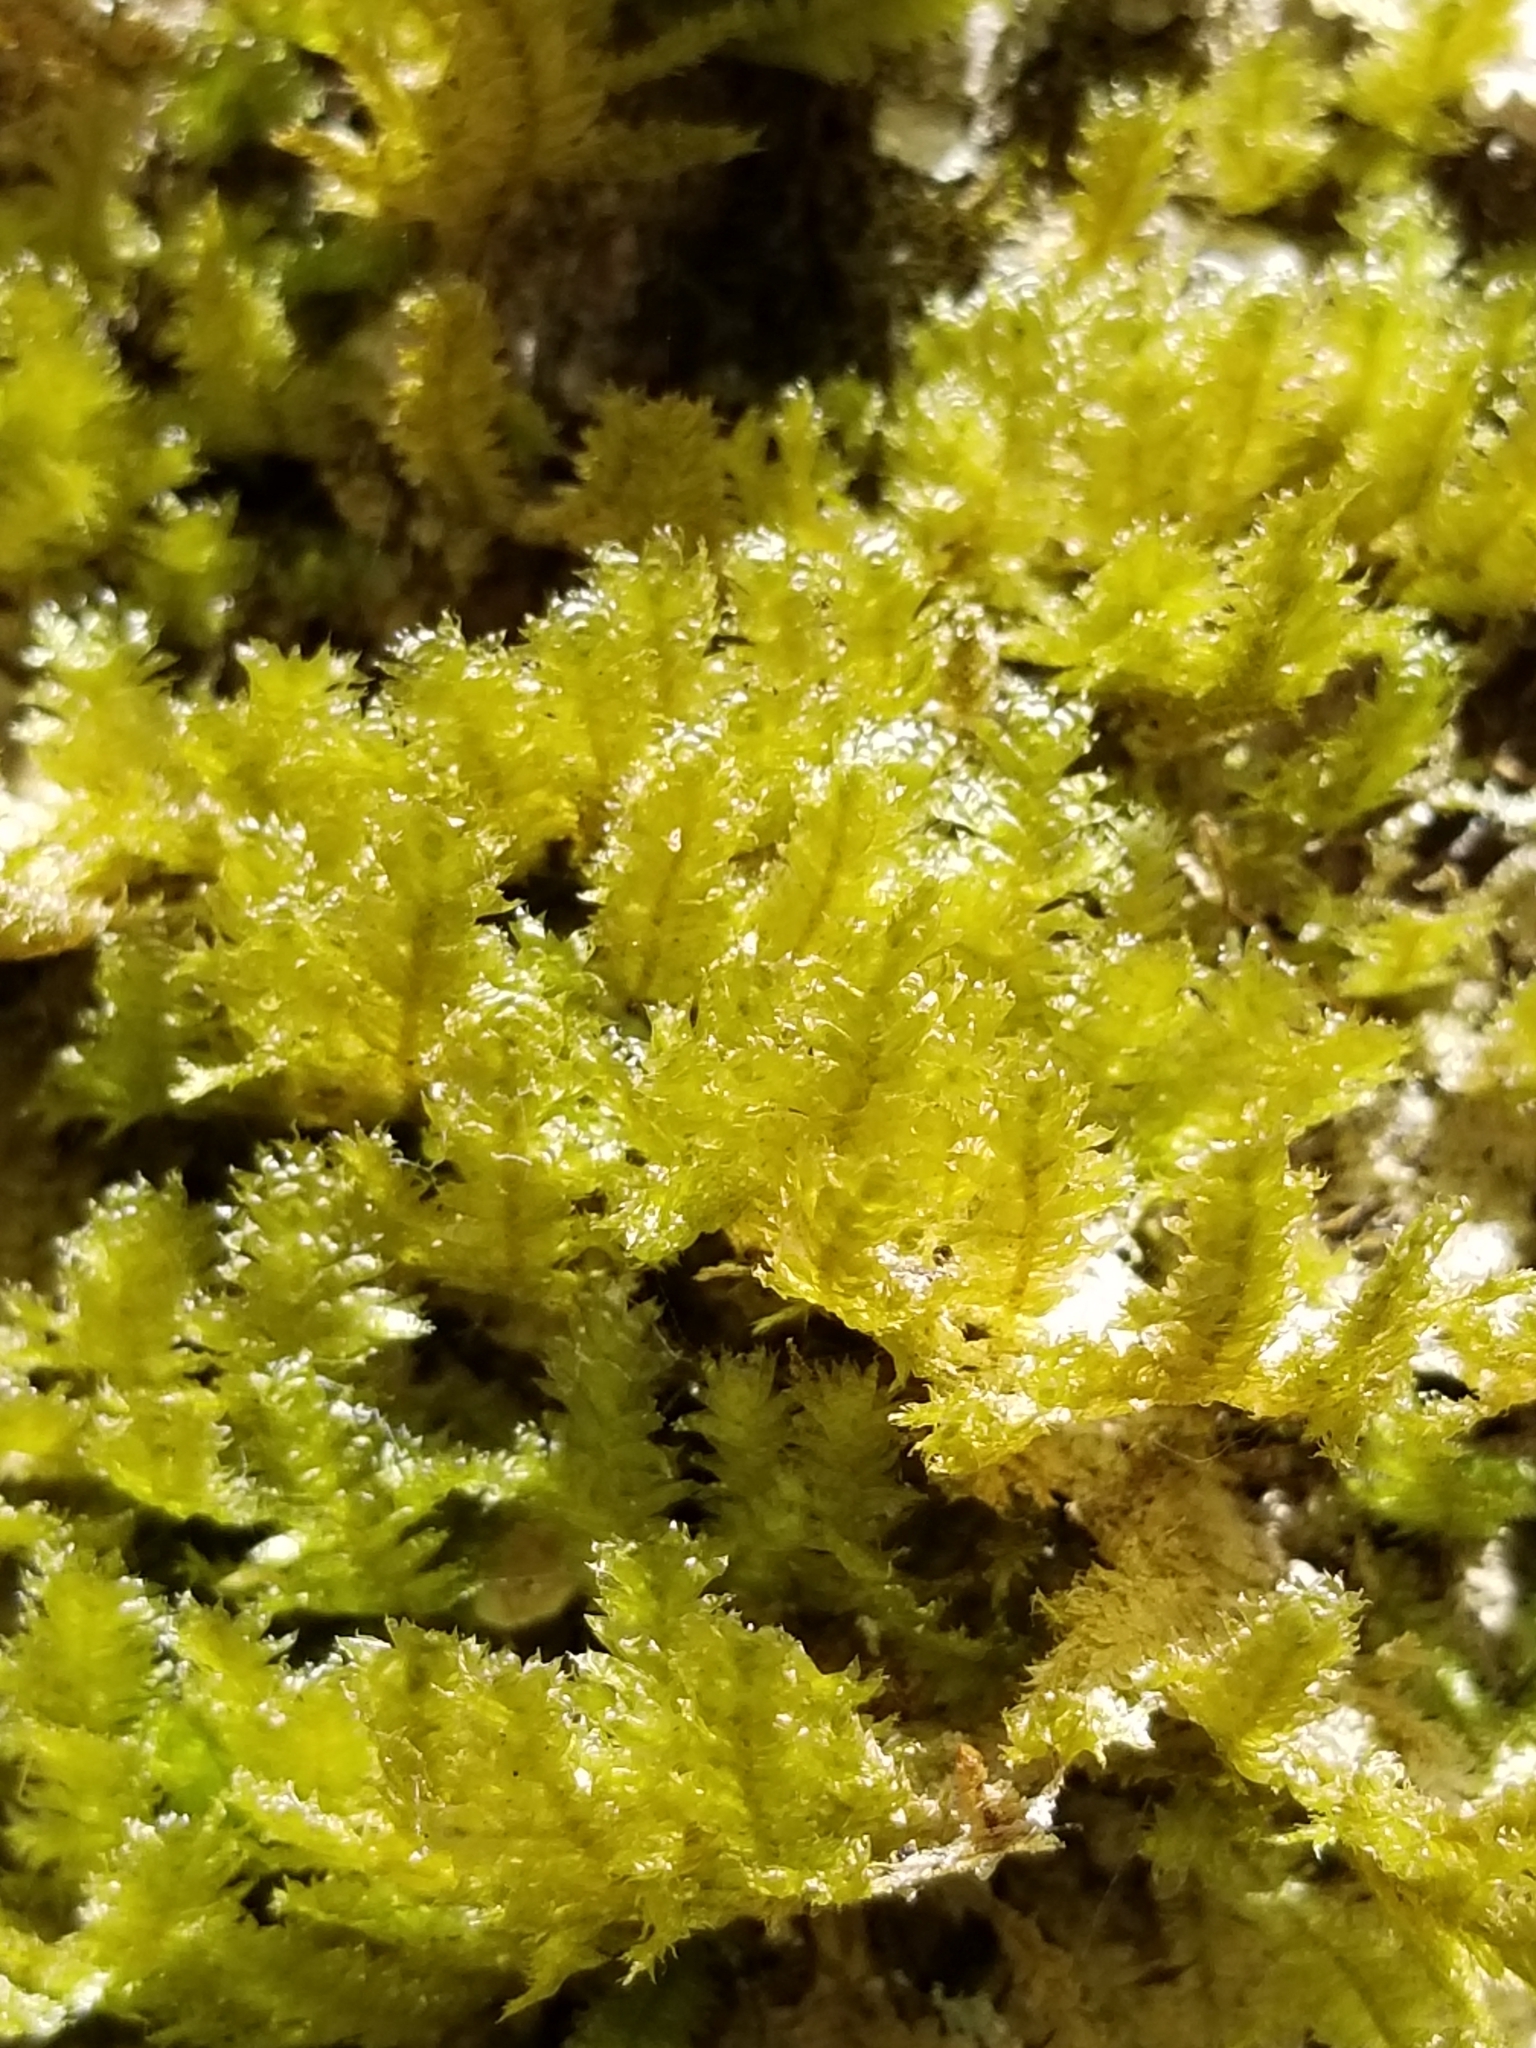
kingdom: Plantae
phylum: Bryophyta
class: Bryopsida
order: Hypnales
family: Neckeraceae
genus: Neckera
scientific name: Neckera pennata
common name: Feathery neckera
